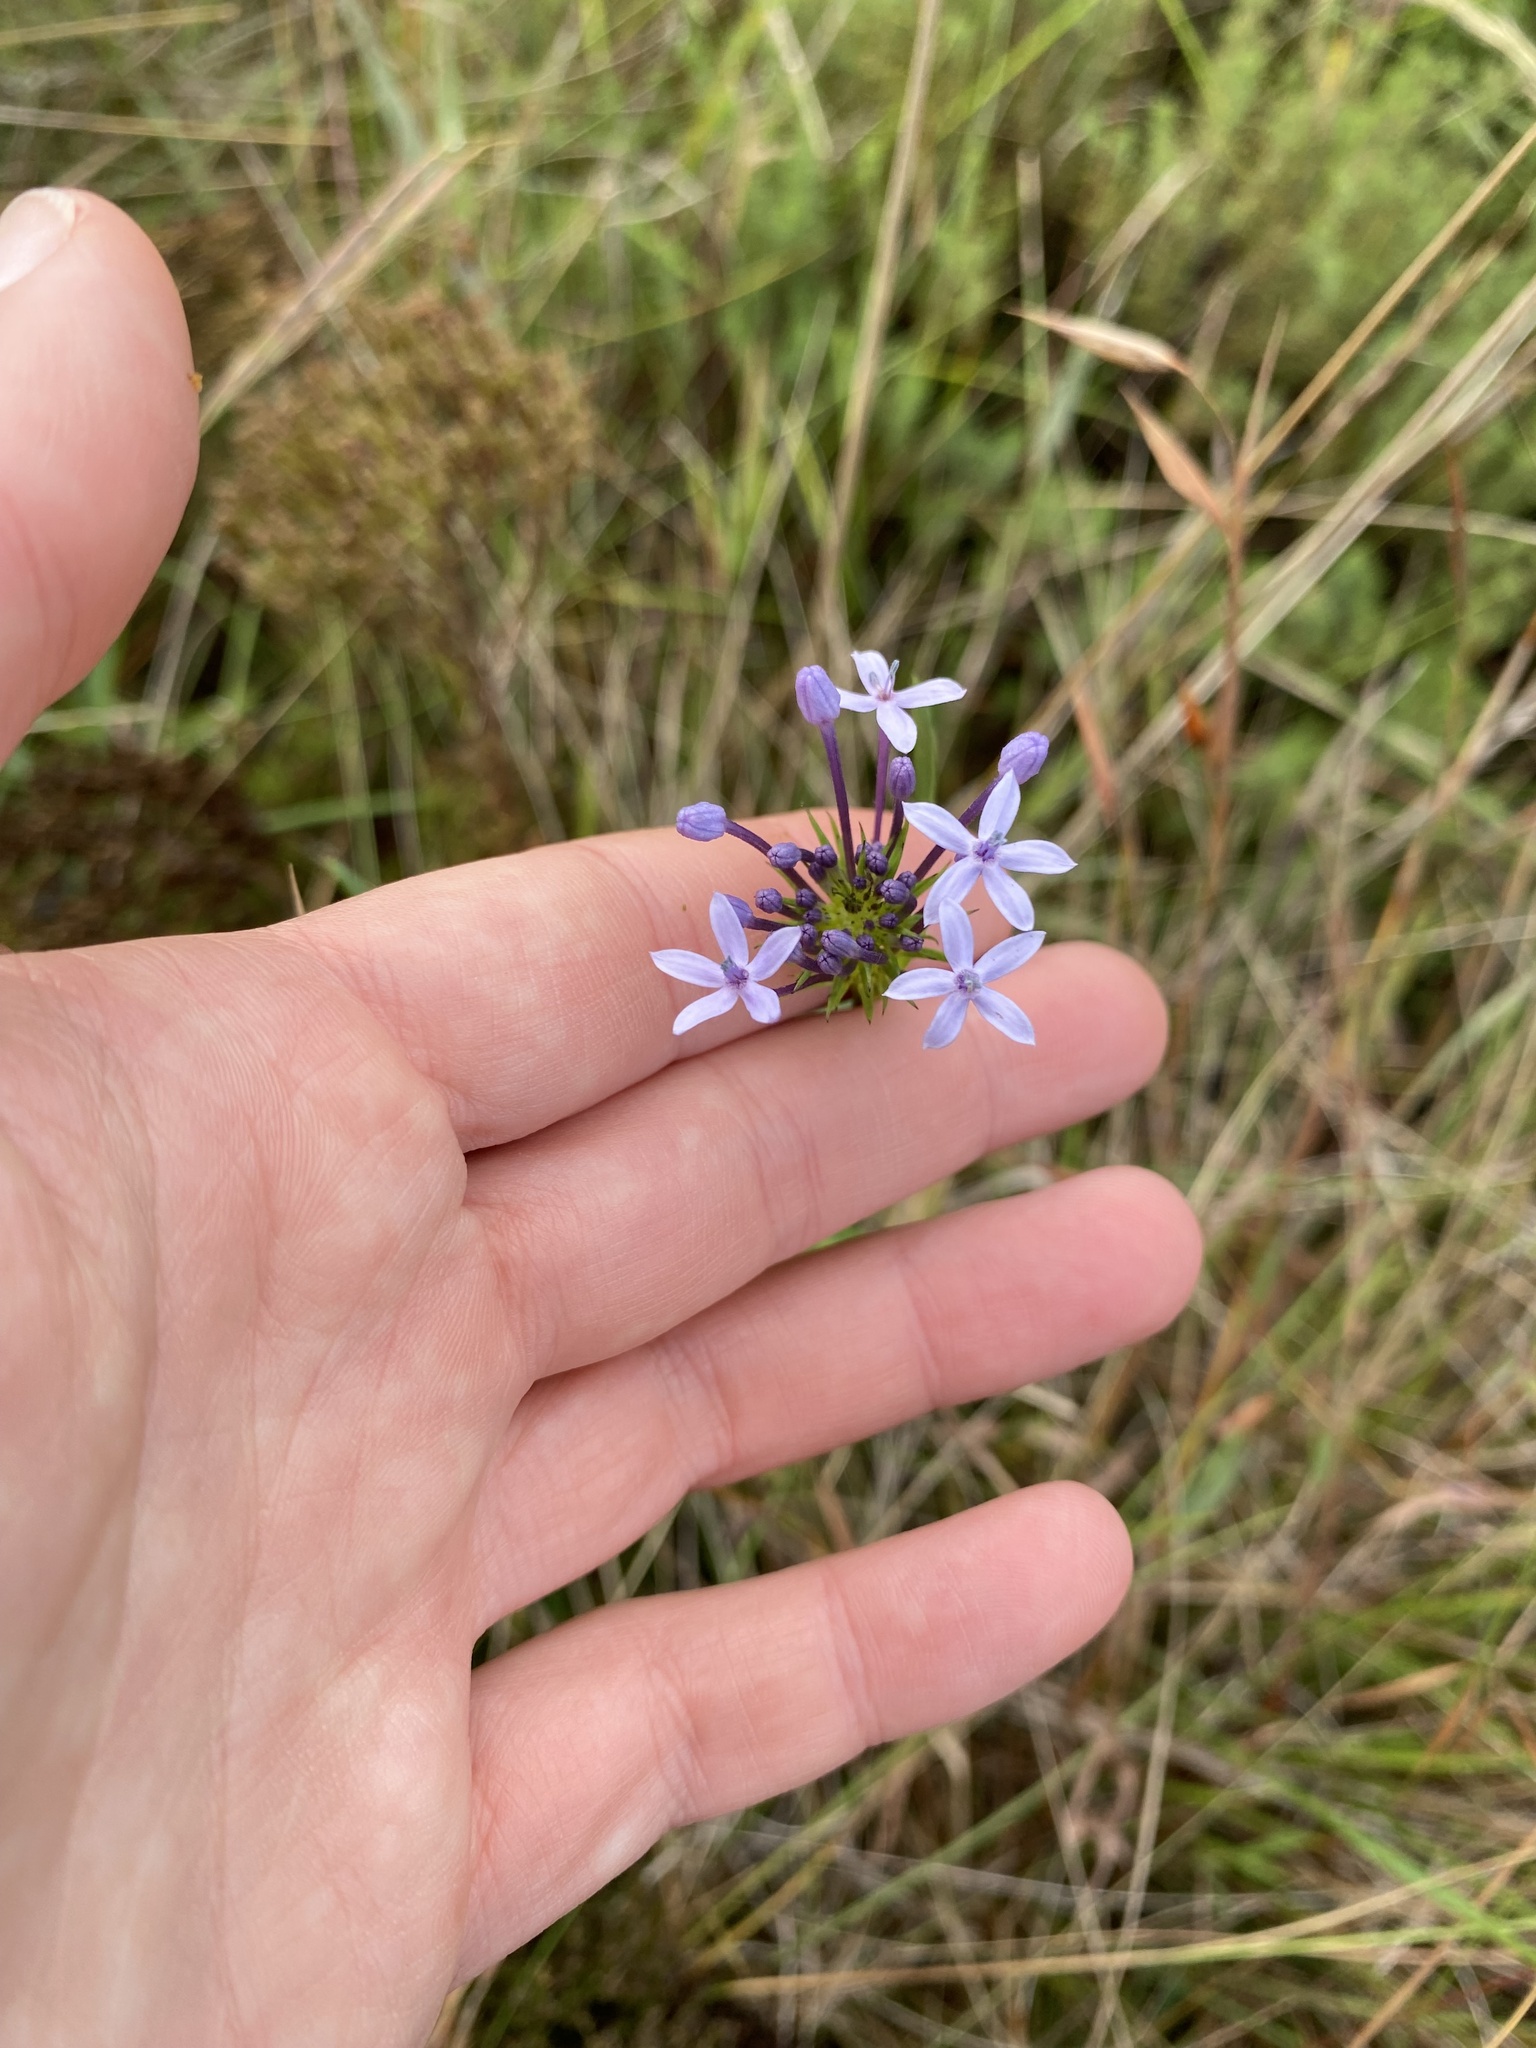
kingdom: Plantae
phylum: Tracheophyta
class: Magnoliopsida
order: Gentianales
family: Rubiaceae
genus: Pentanisia
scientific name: Pentanisia angustifolia
